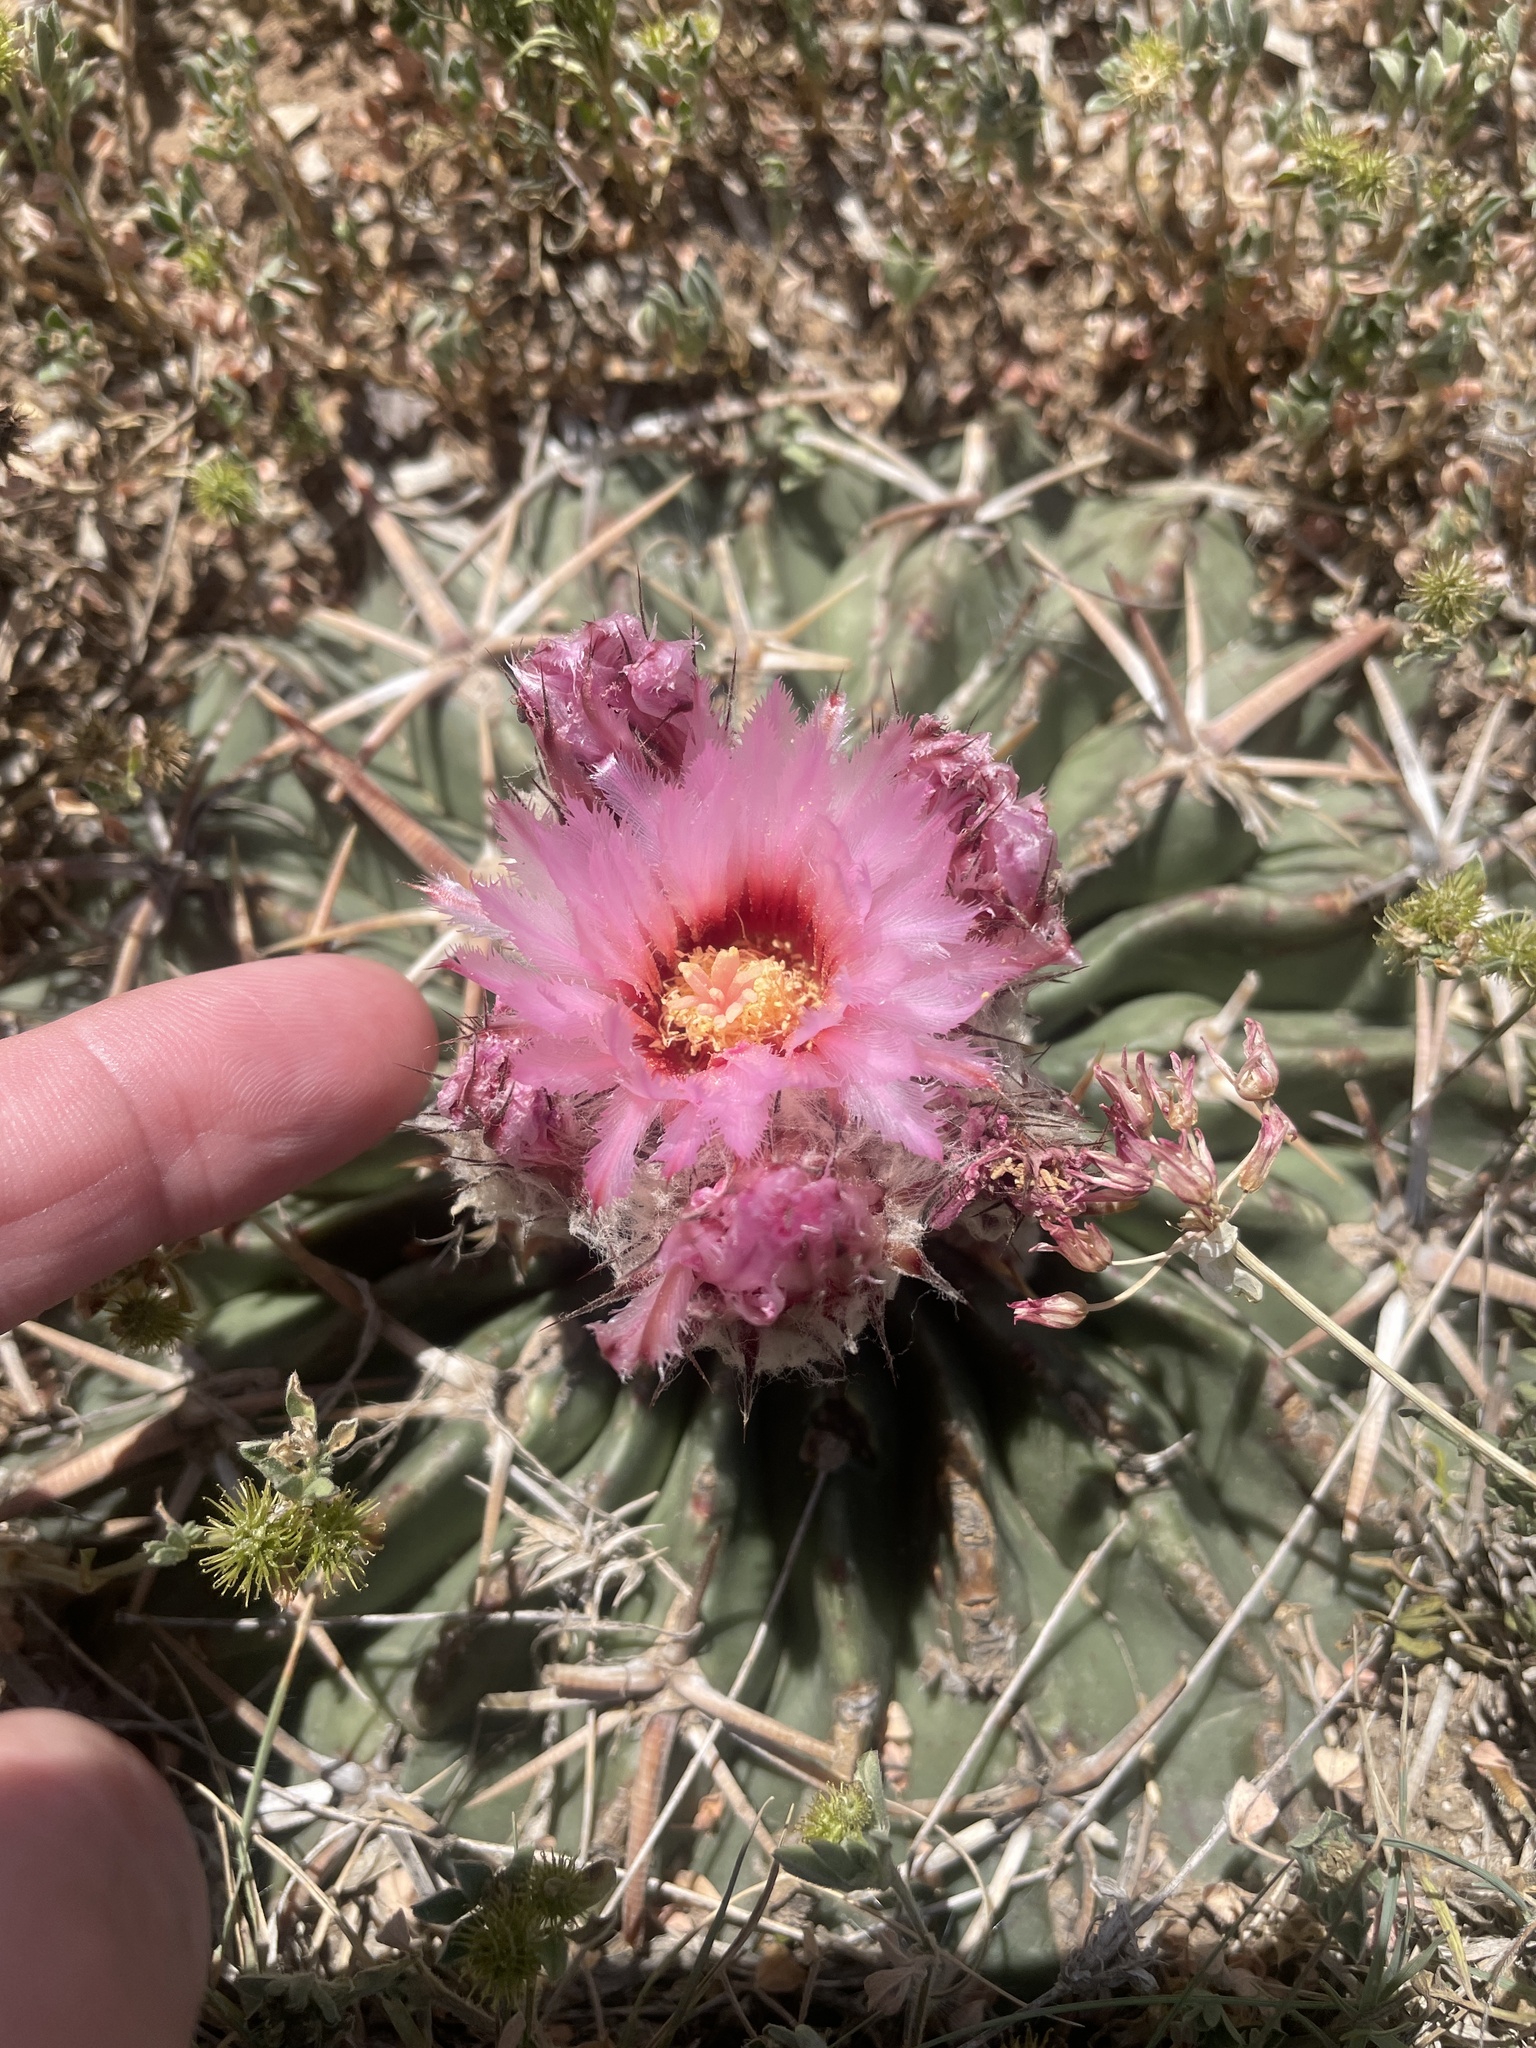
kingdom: Plantae
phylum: Tracheophyta
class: Magnoliopsida
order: Caryophyllales
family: Cactaceae
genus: Echinocactus
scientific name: Echinocactus texensis
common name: Devil's pincushion
